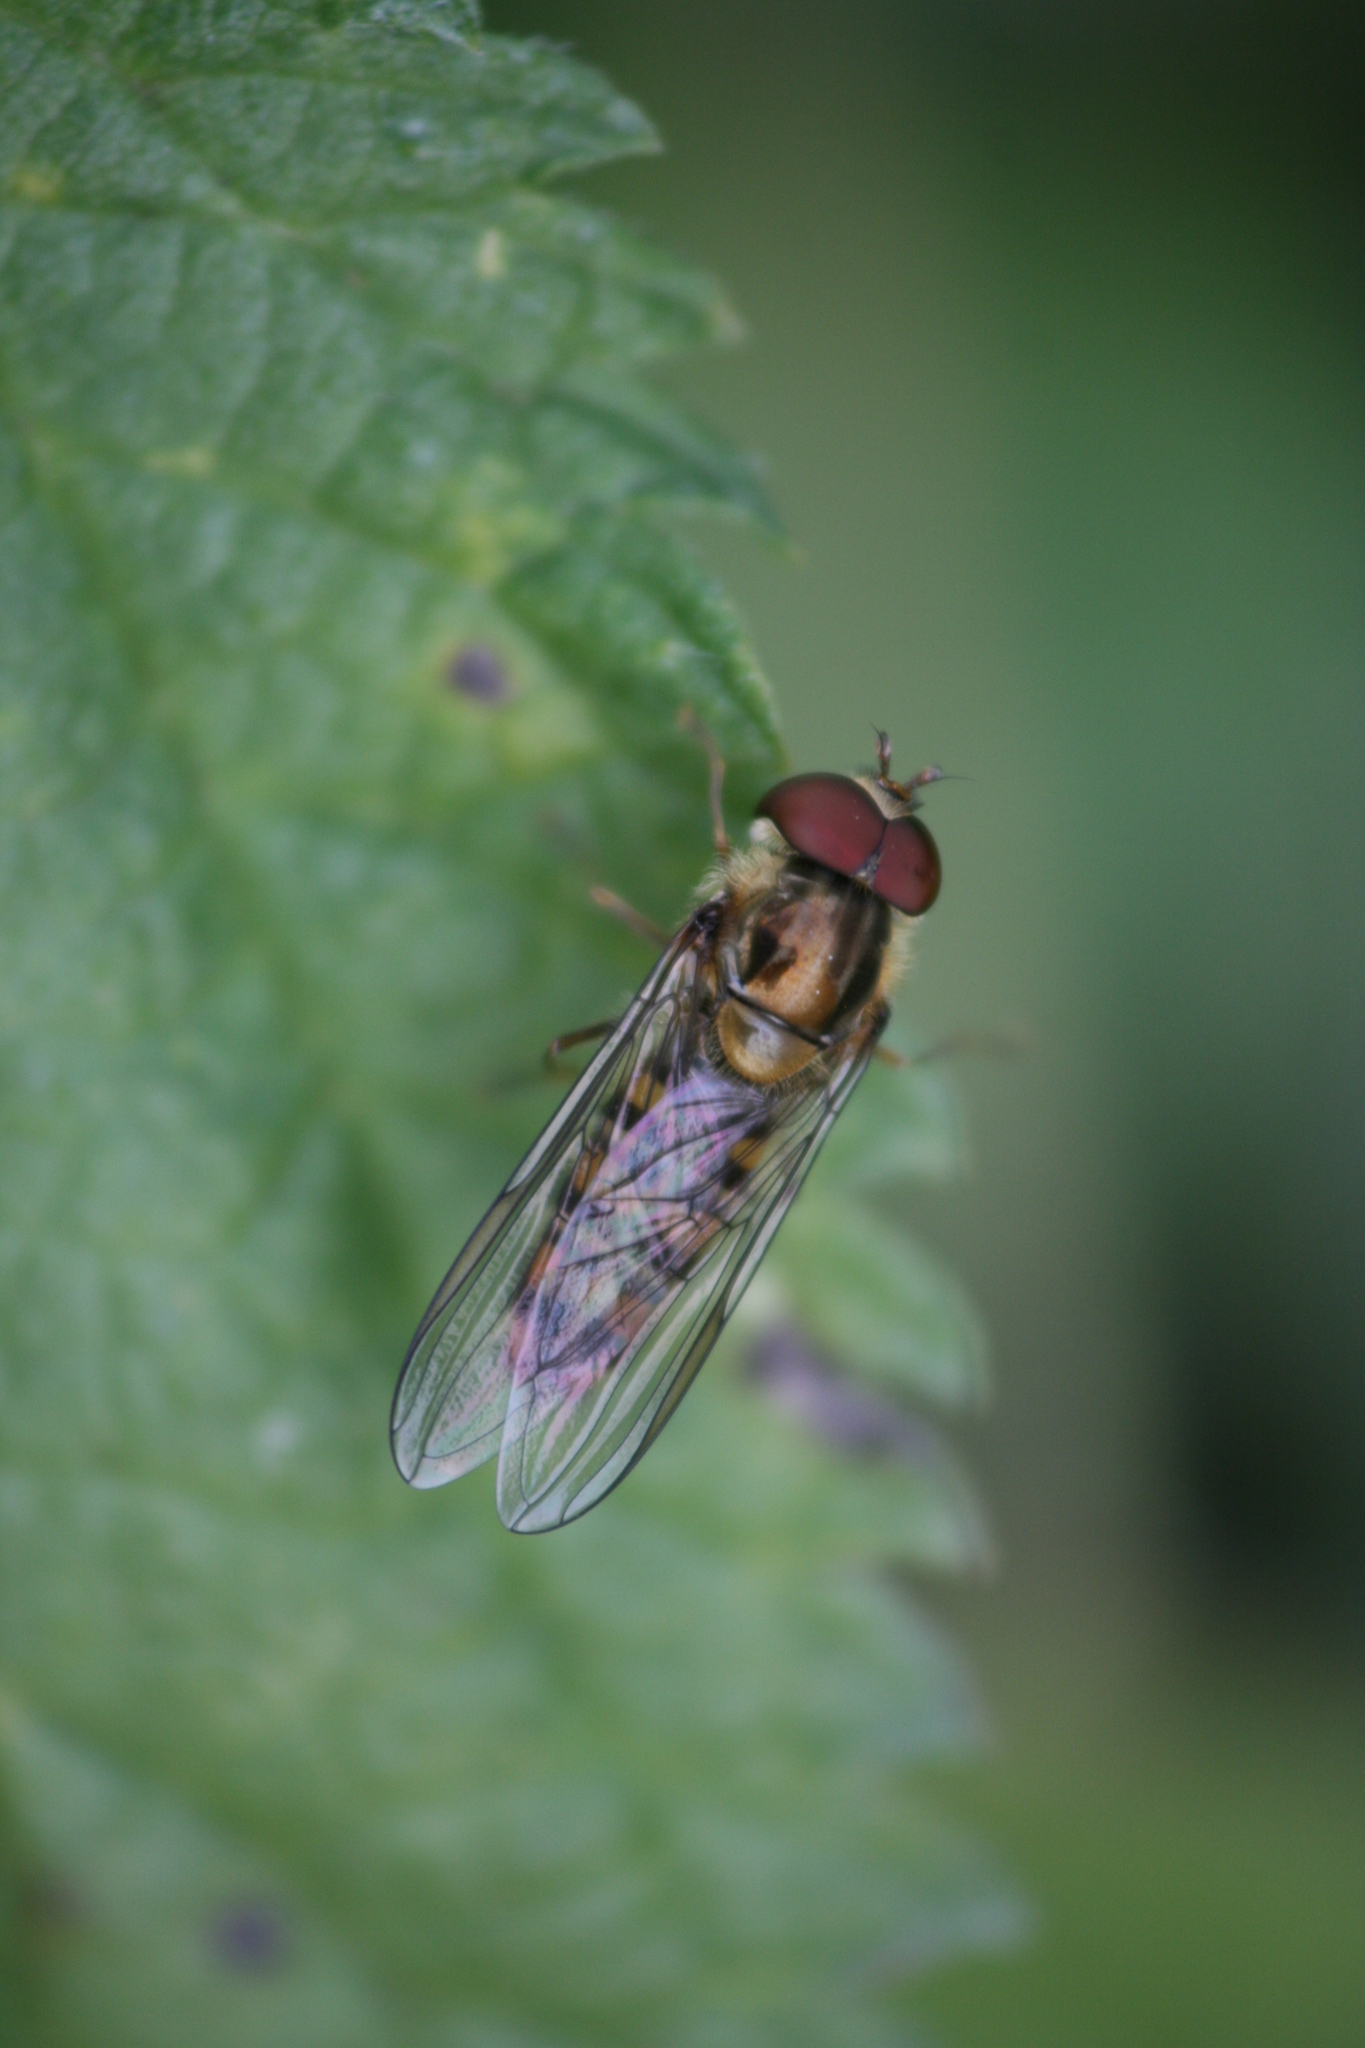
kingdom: Animalia
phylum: Arthropoda
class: Insecta
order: Diptera
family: Syrphidae
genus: Episyrphus
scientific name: Episyrphus balteatus
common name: Marmalade hoverfly
